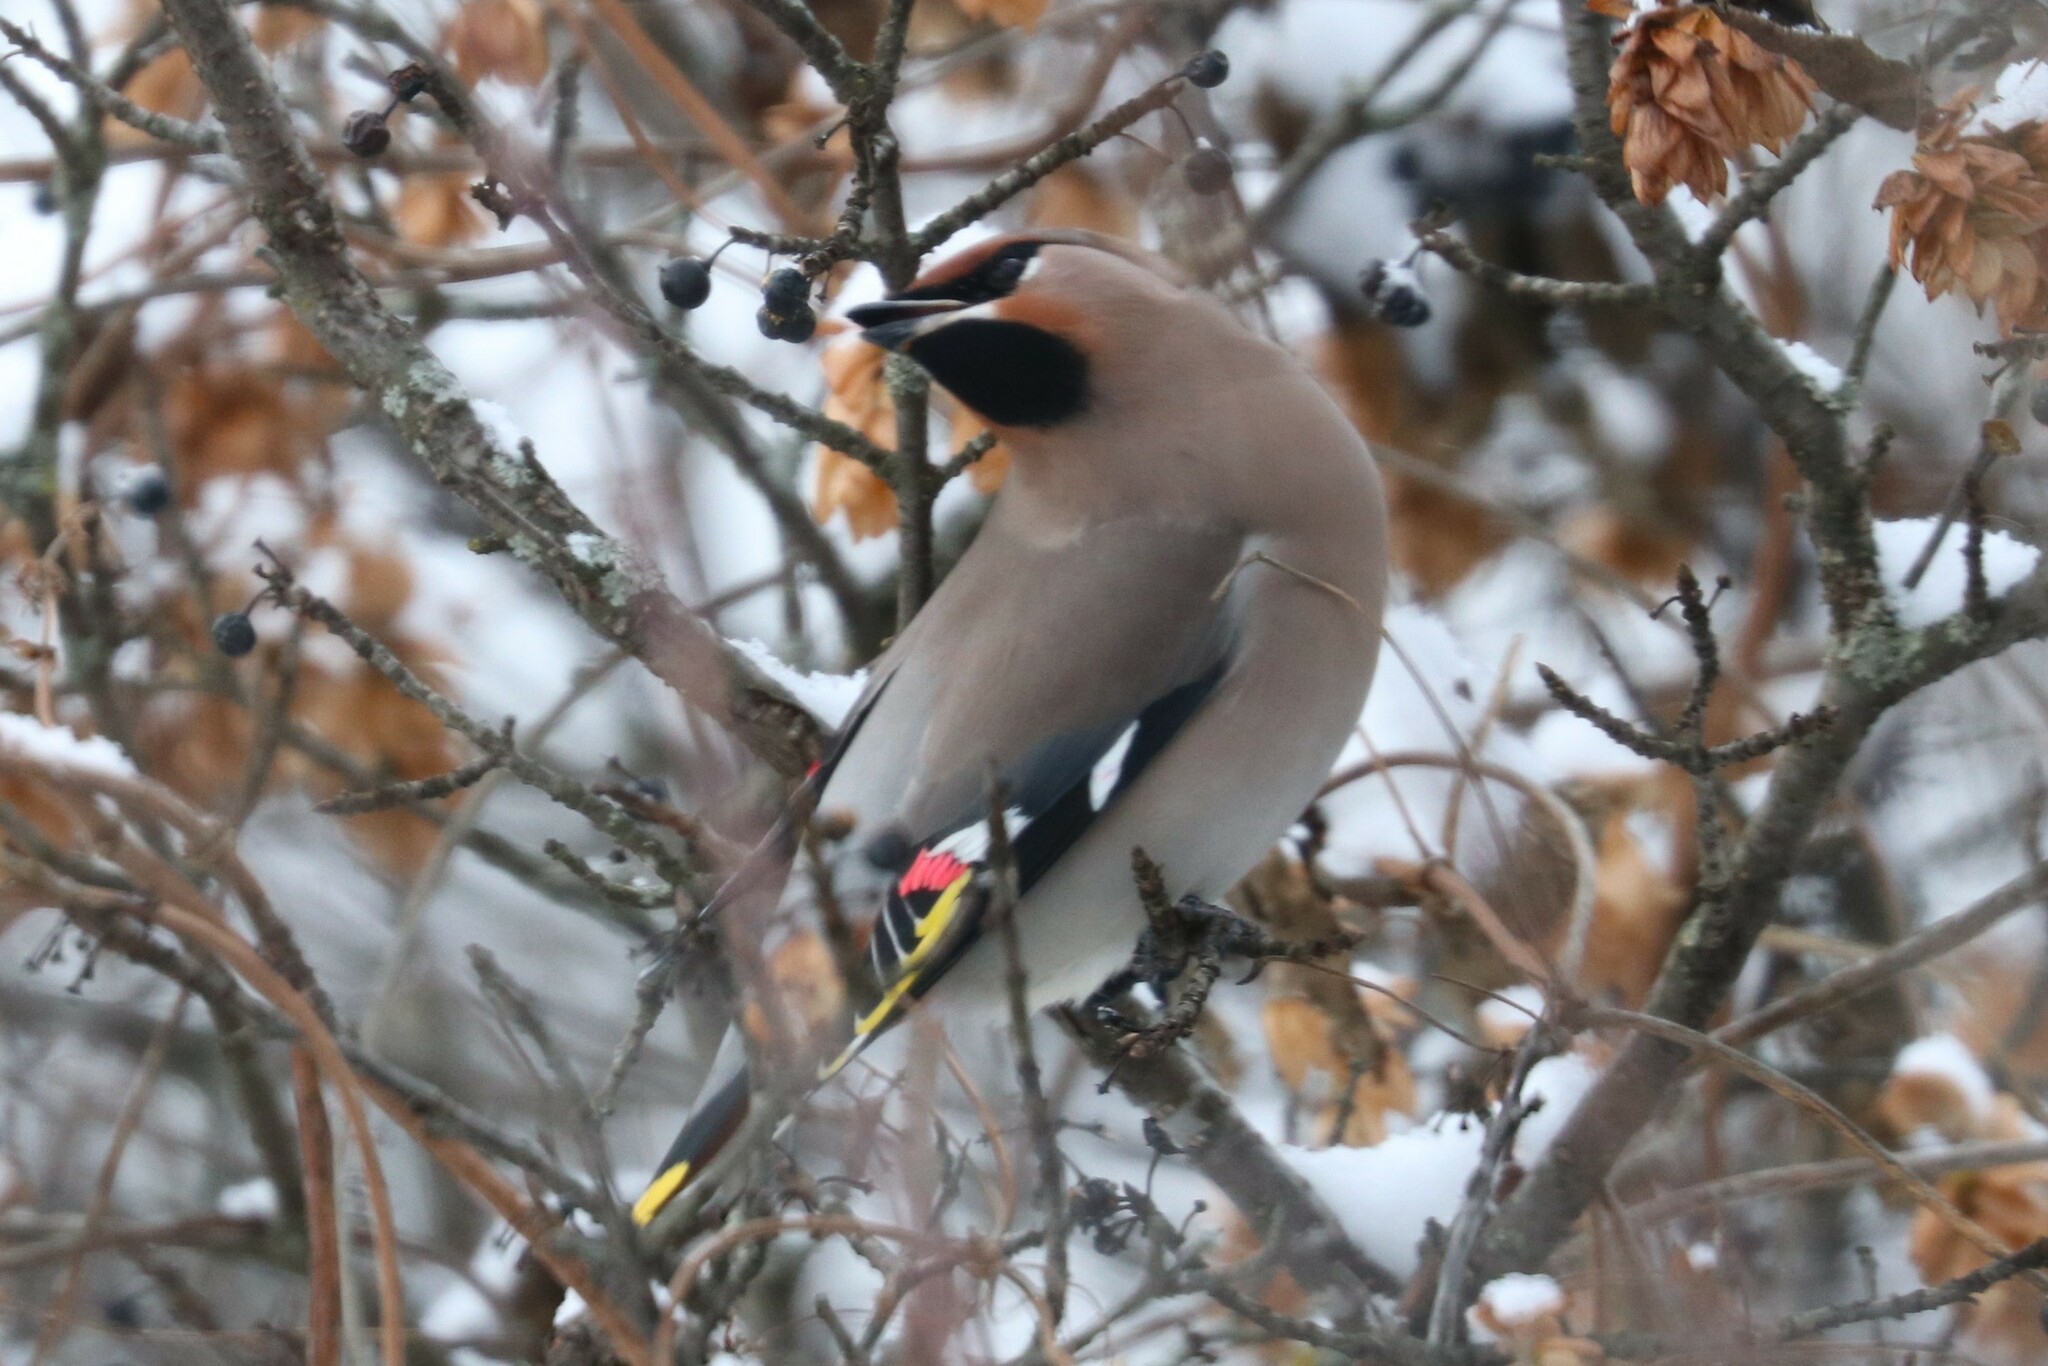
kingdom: Animalia
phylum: Chordata
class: Aves
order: Passeriformes
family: Bombycillidae
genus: Bombycilla
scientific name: Bombycilla garrulus
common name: Bohemian waxwing
